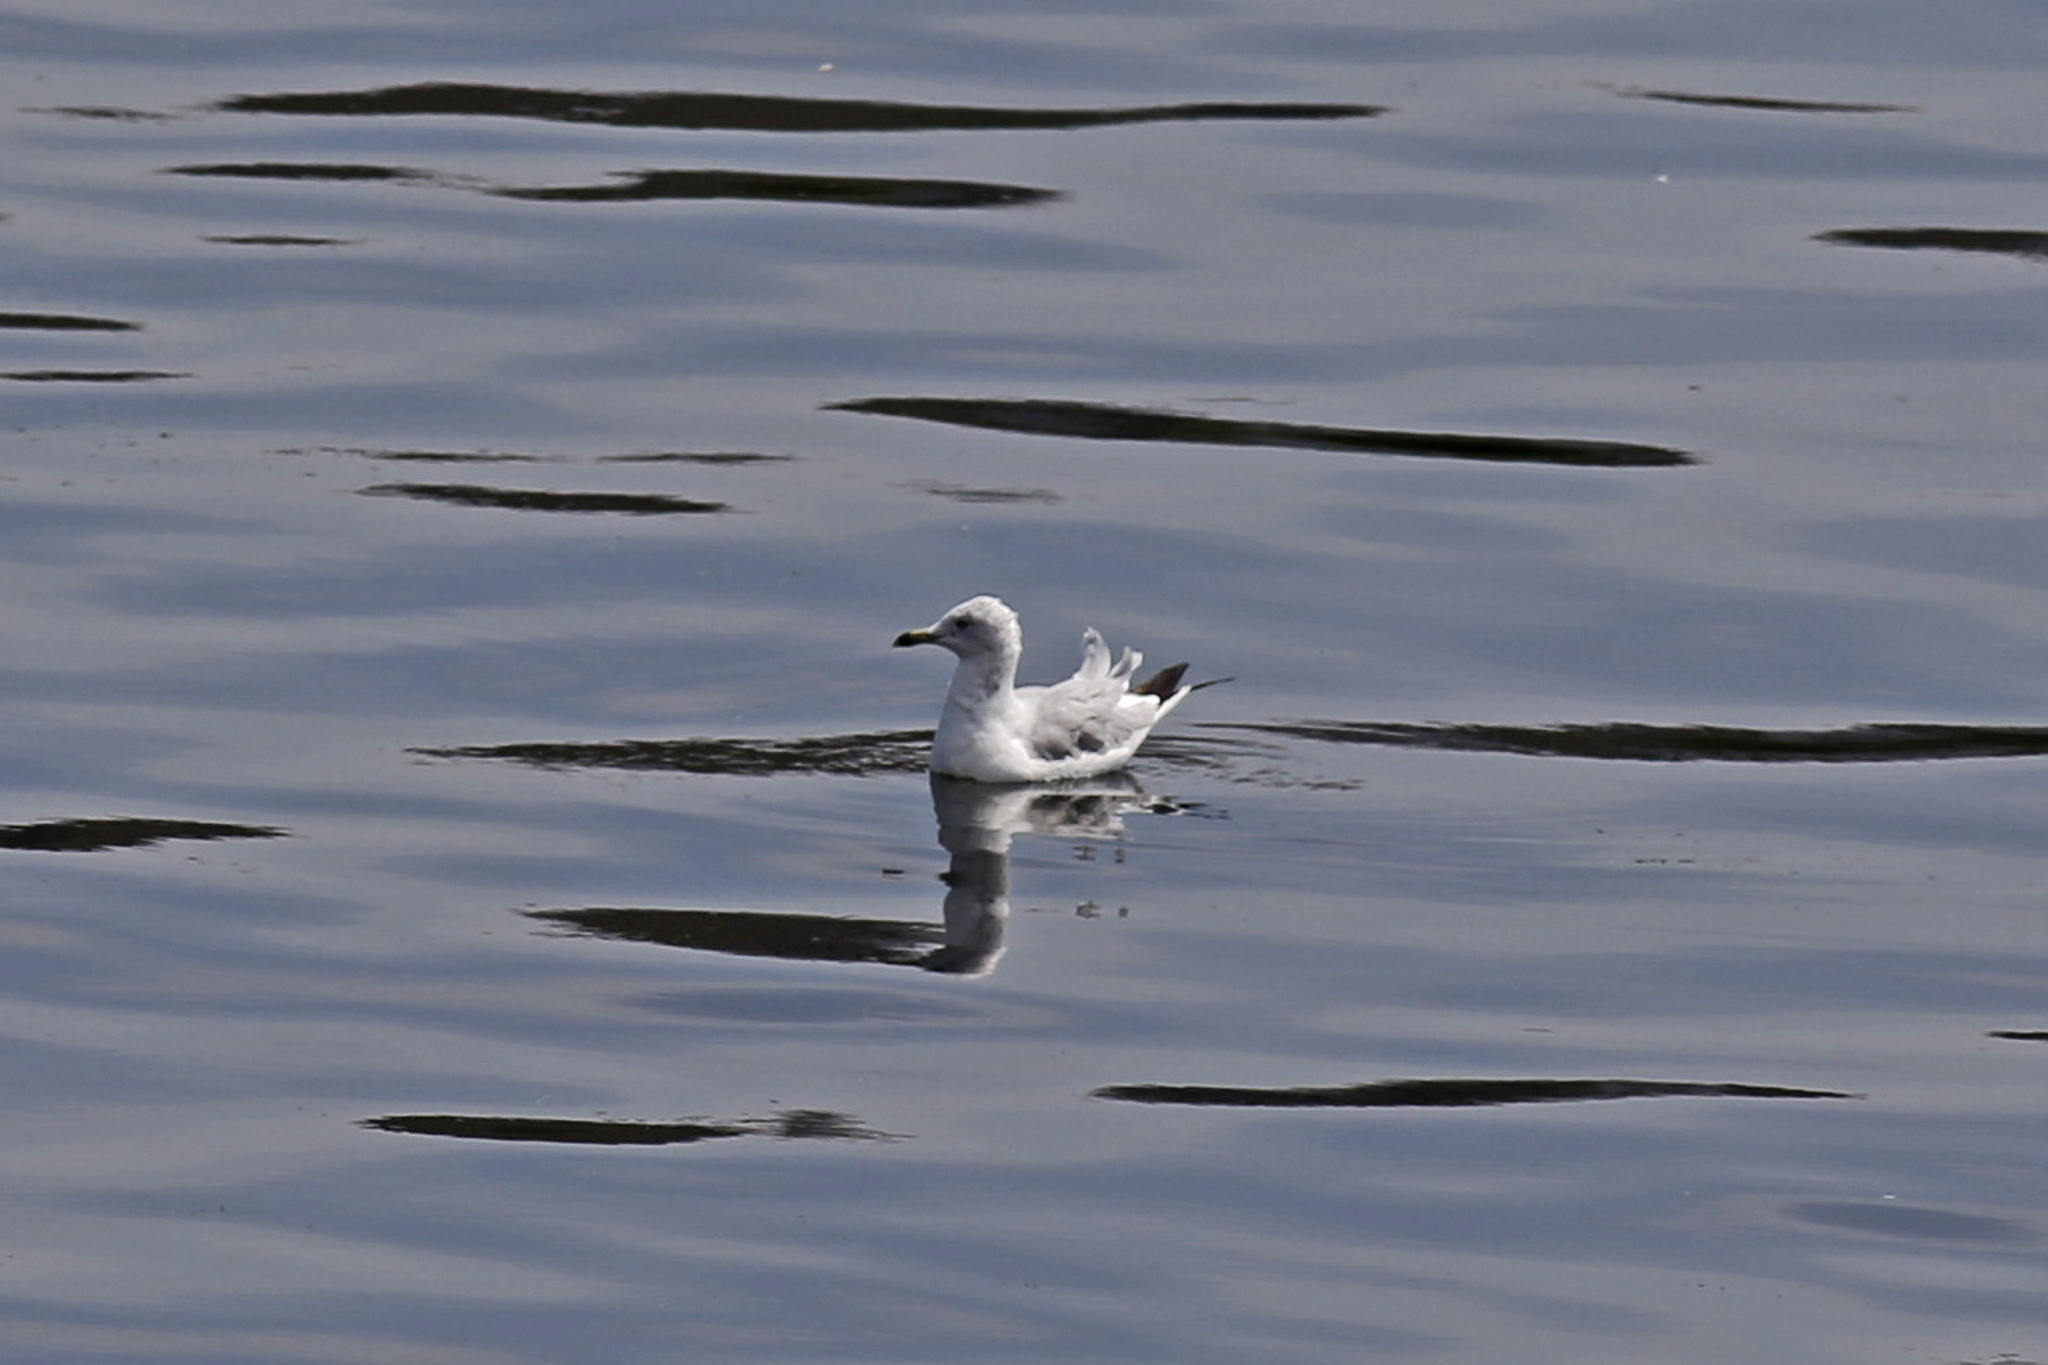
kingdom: Animalia
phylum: Chordata
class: Aves
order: Charadriiformes
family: Laridae
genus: Larus
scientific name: Larus delawarensis
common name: Ring-billed gull
